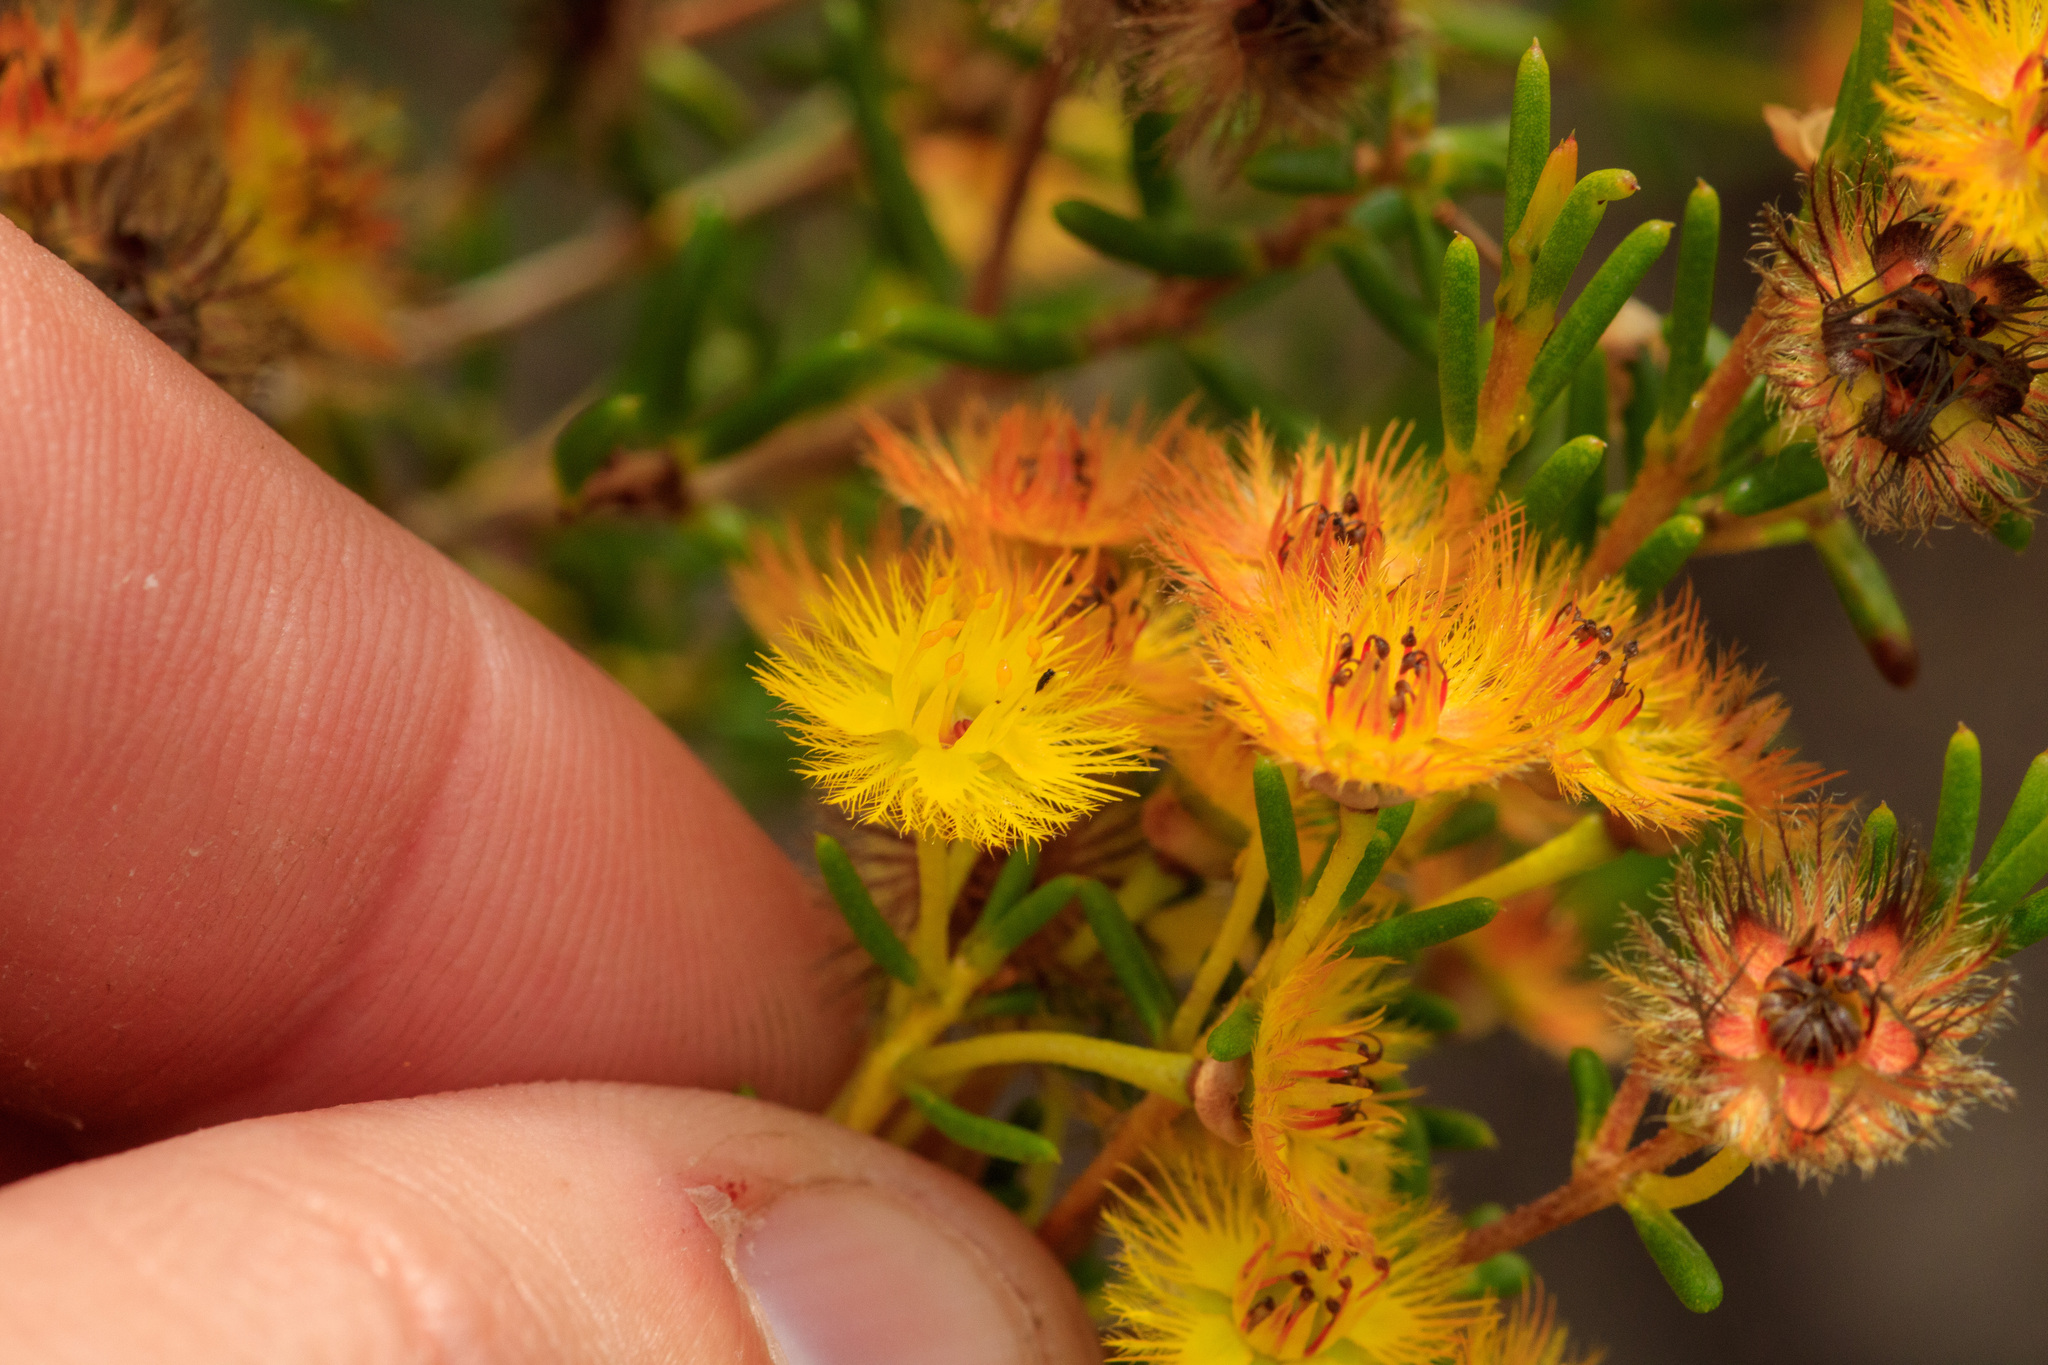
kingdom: Plantae
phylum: Tracheophyta
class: Magnoliopsida
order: Myrtales
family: Myrtaceae
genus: Verticordia
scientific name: Verticordia chrysanthella
